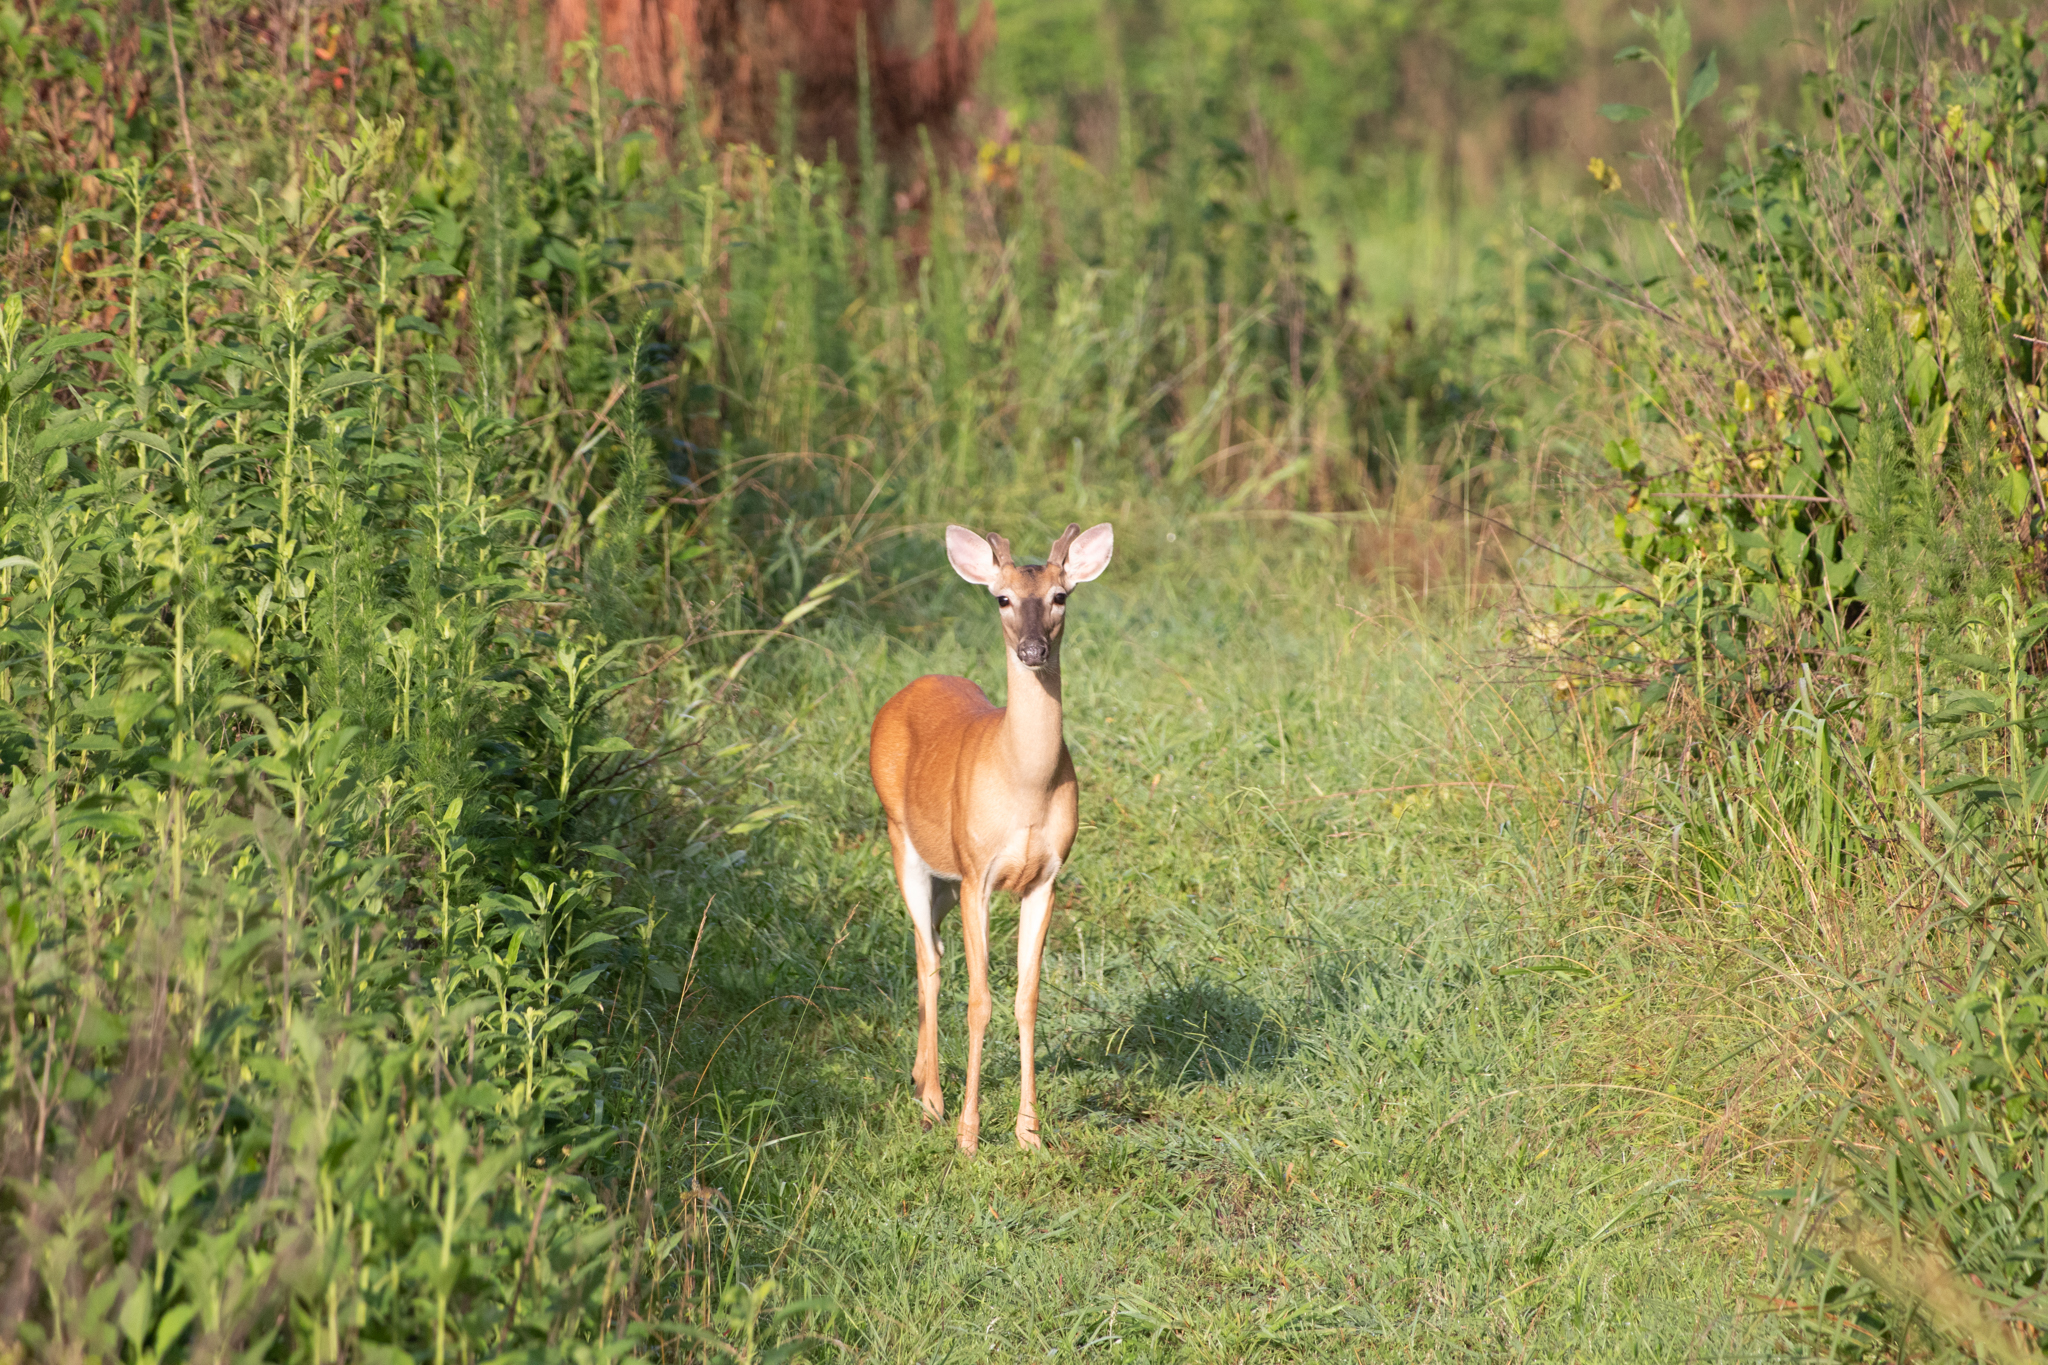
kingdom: Animalia
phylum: Chordata
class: Mammalia
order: Artiodactyla
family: Cervidae
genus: Odocoileus
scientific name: Odocoileus virginianus
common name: White-tailed deer
